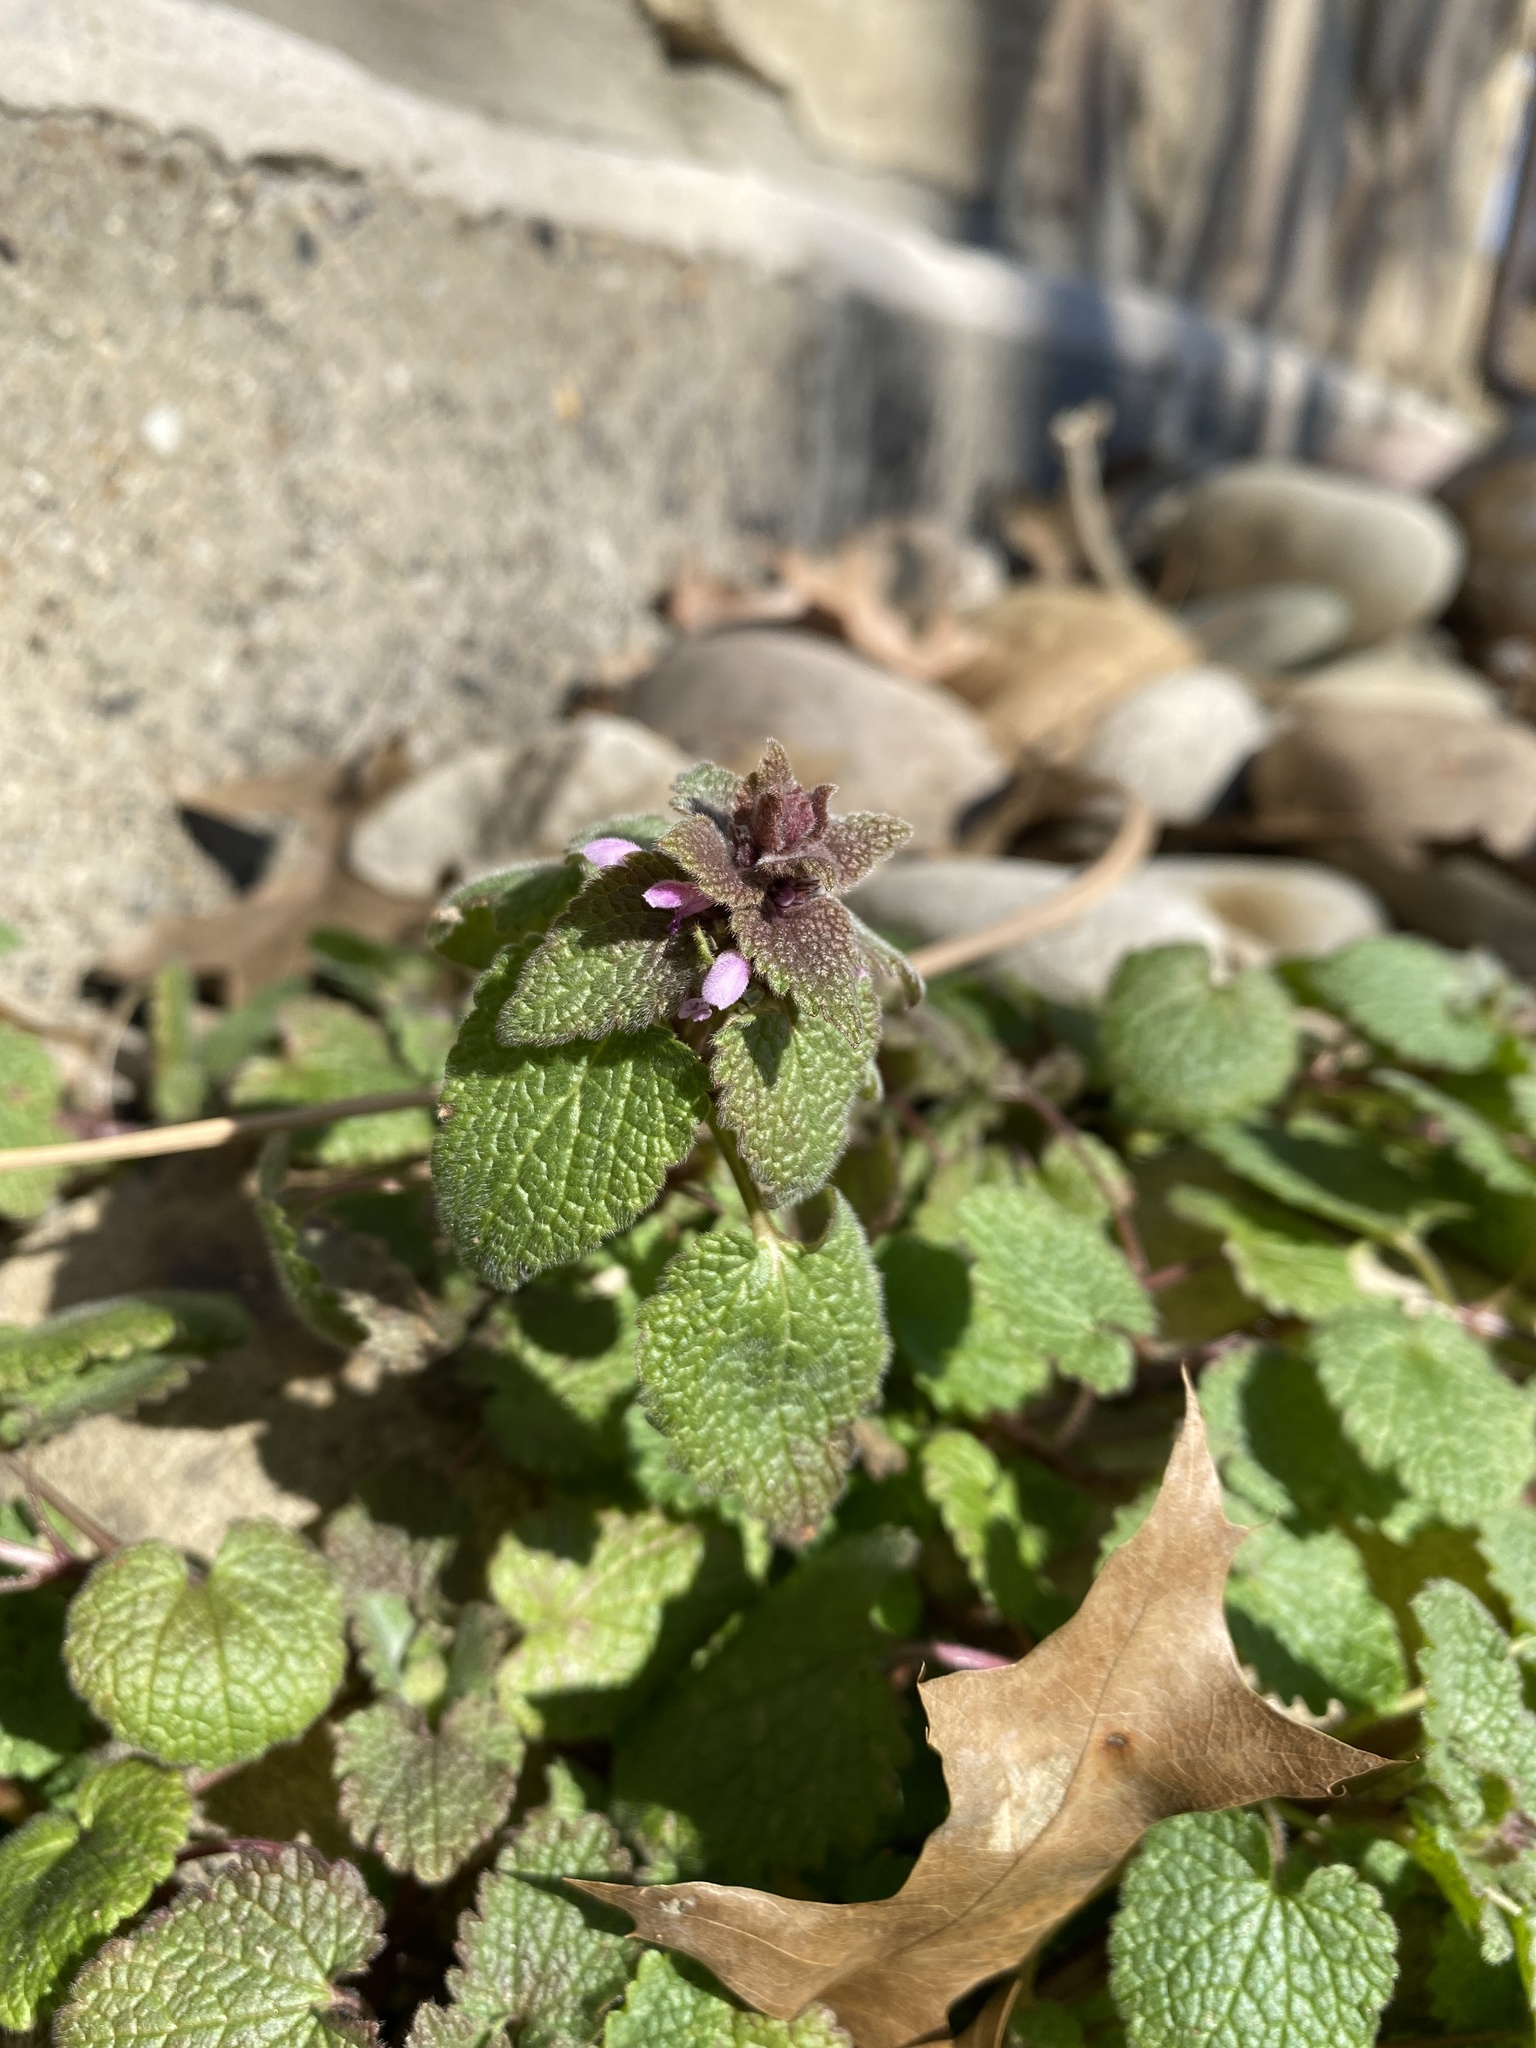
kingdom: Plantae
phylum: Tracheophyta
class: Magnoliopsida
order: Lamiales
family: Lamiaceae
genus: Lamium
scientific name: Lamium purpureum
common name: Red dead-nettle
